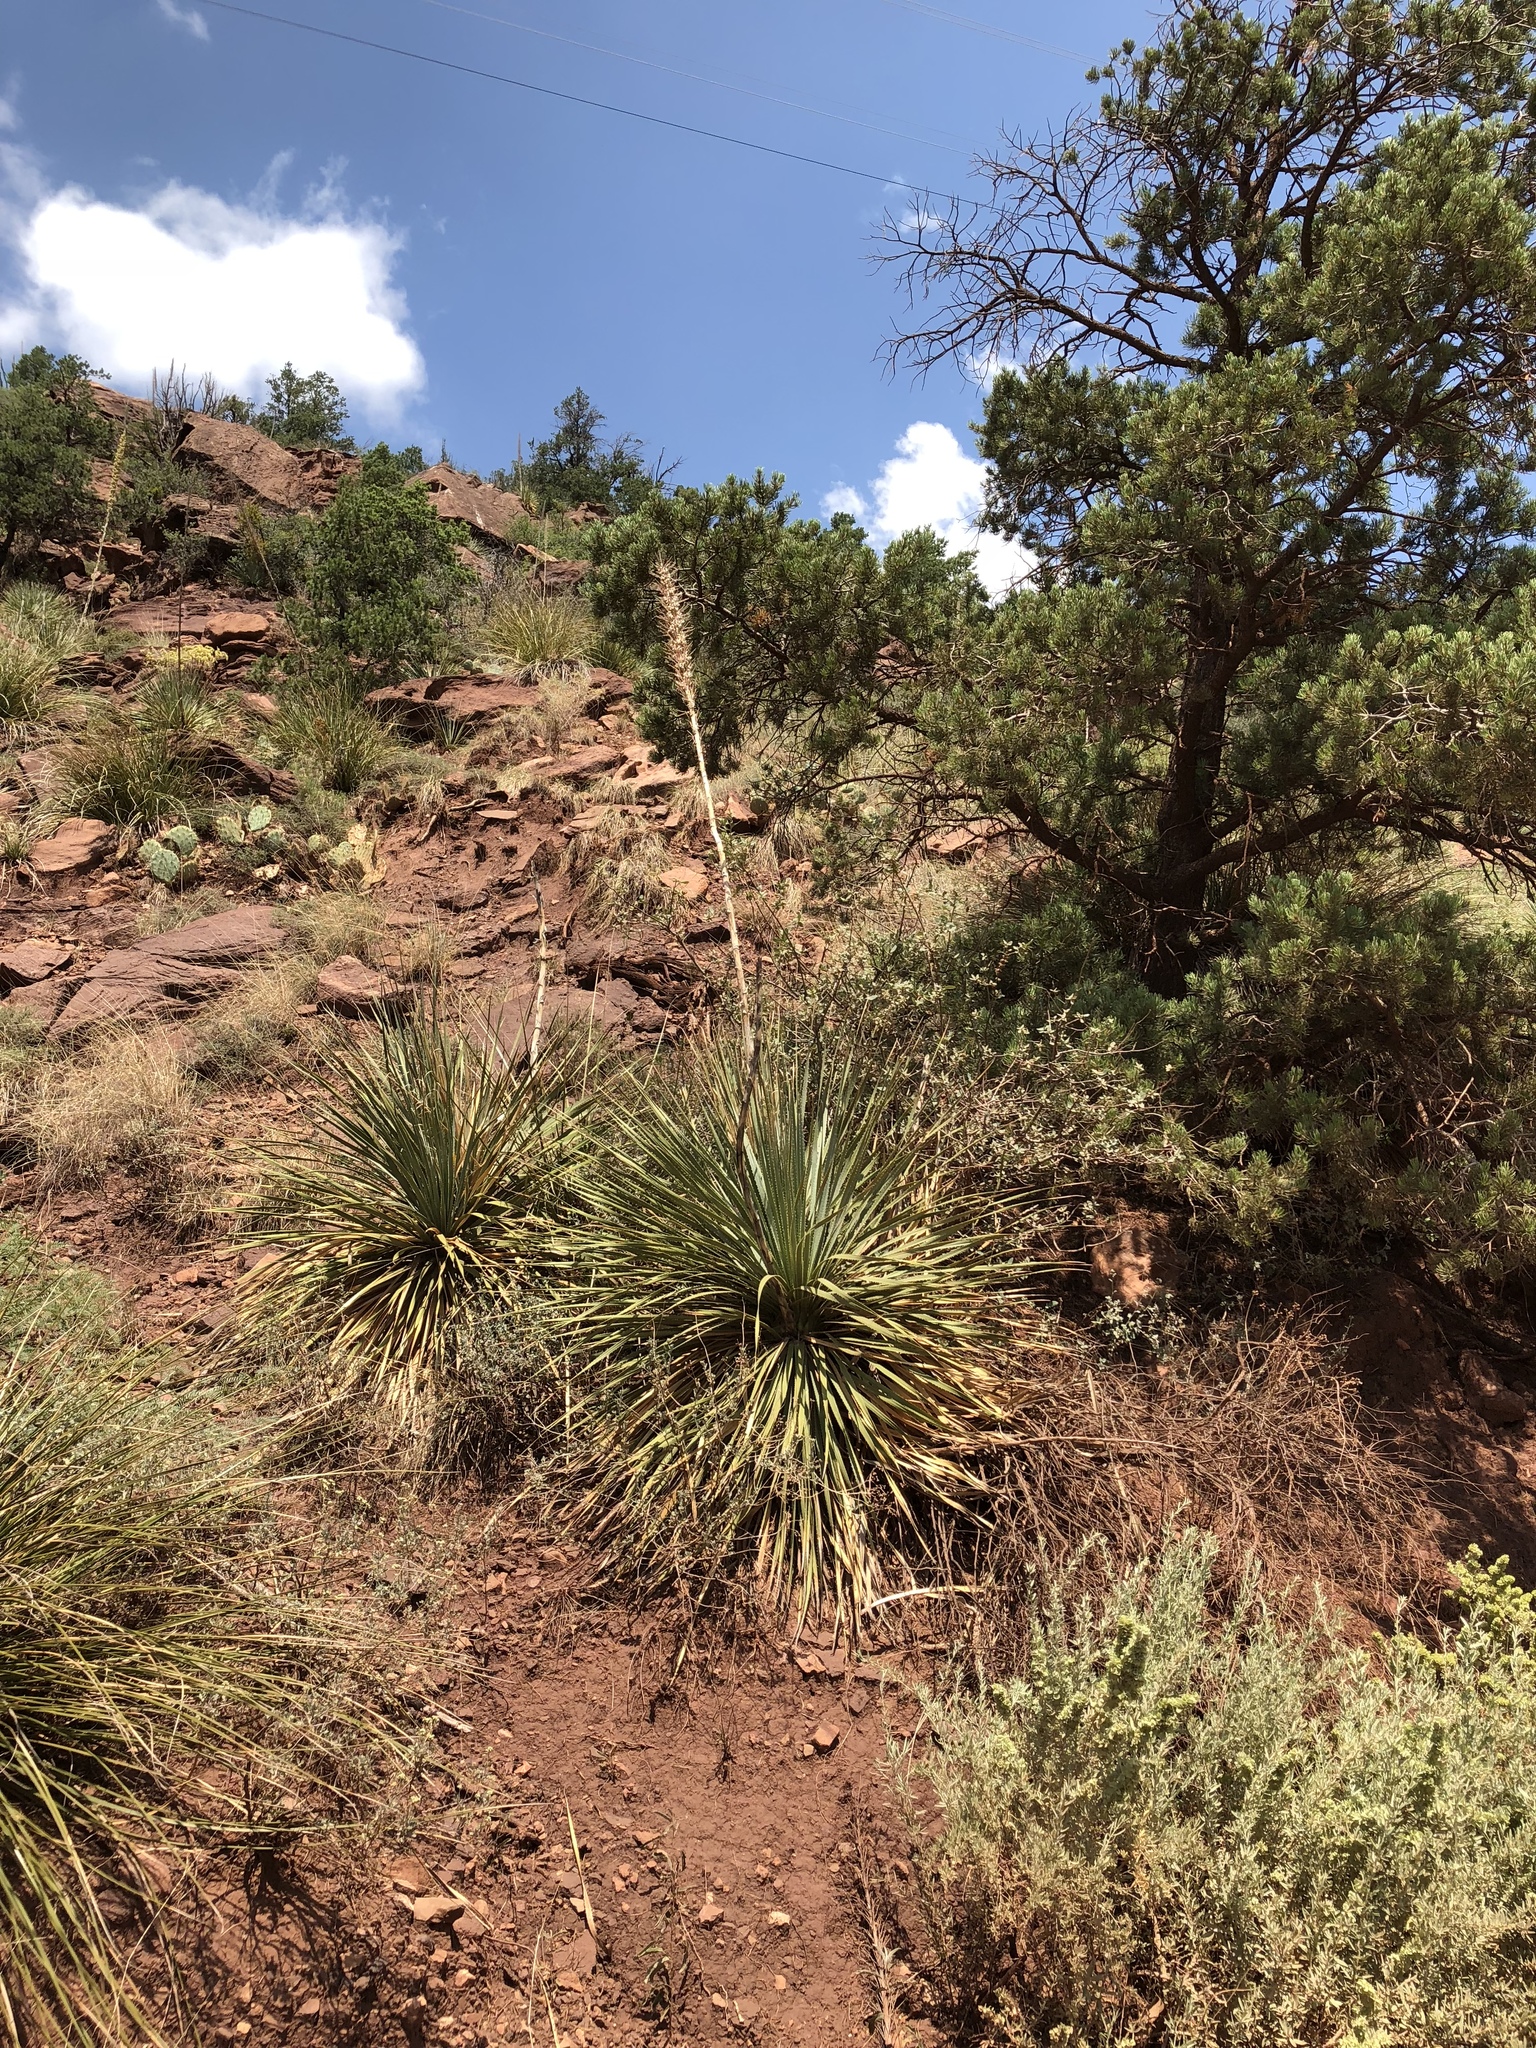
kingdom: Plantae
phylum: Tracheophyta
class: Liliopsida
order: Asparagales
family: Asparagaceae
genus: Dasylirion
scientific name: Dasylirion wheeleri
